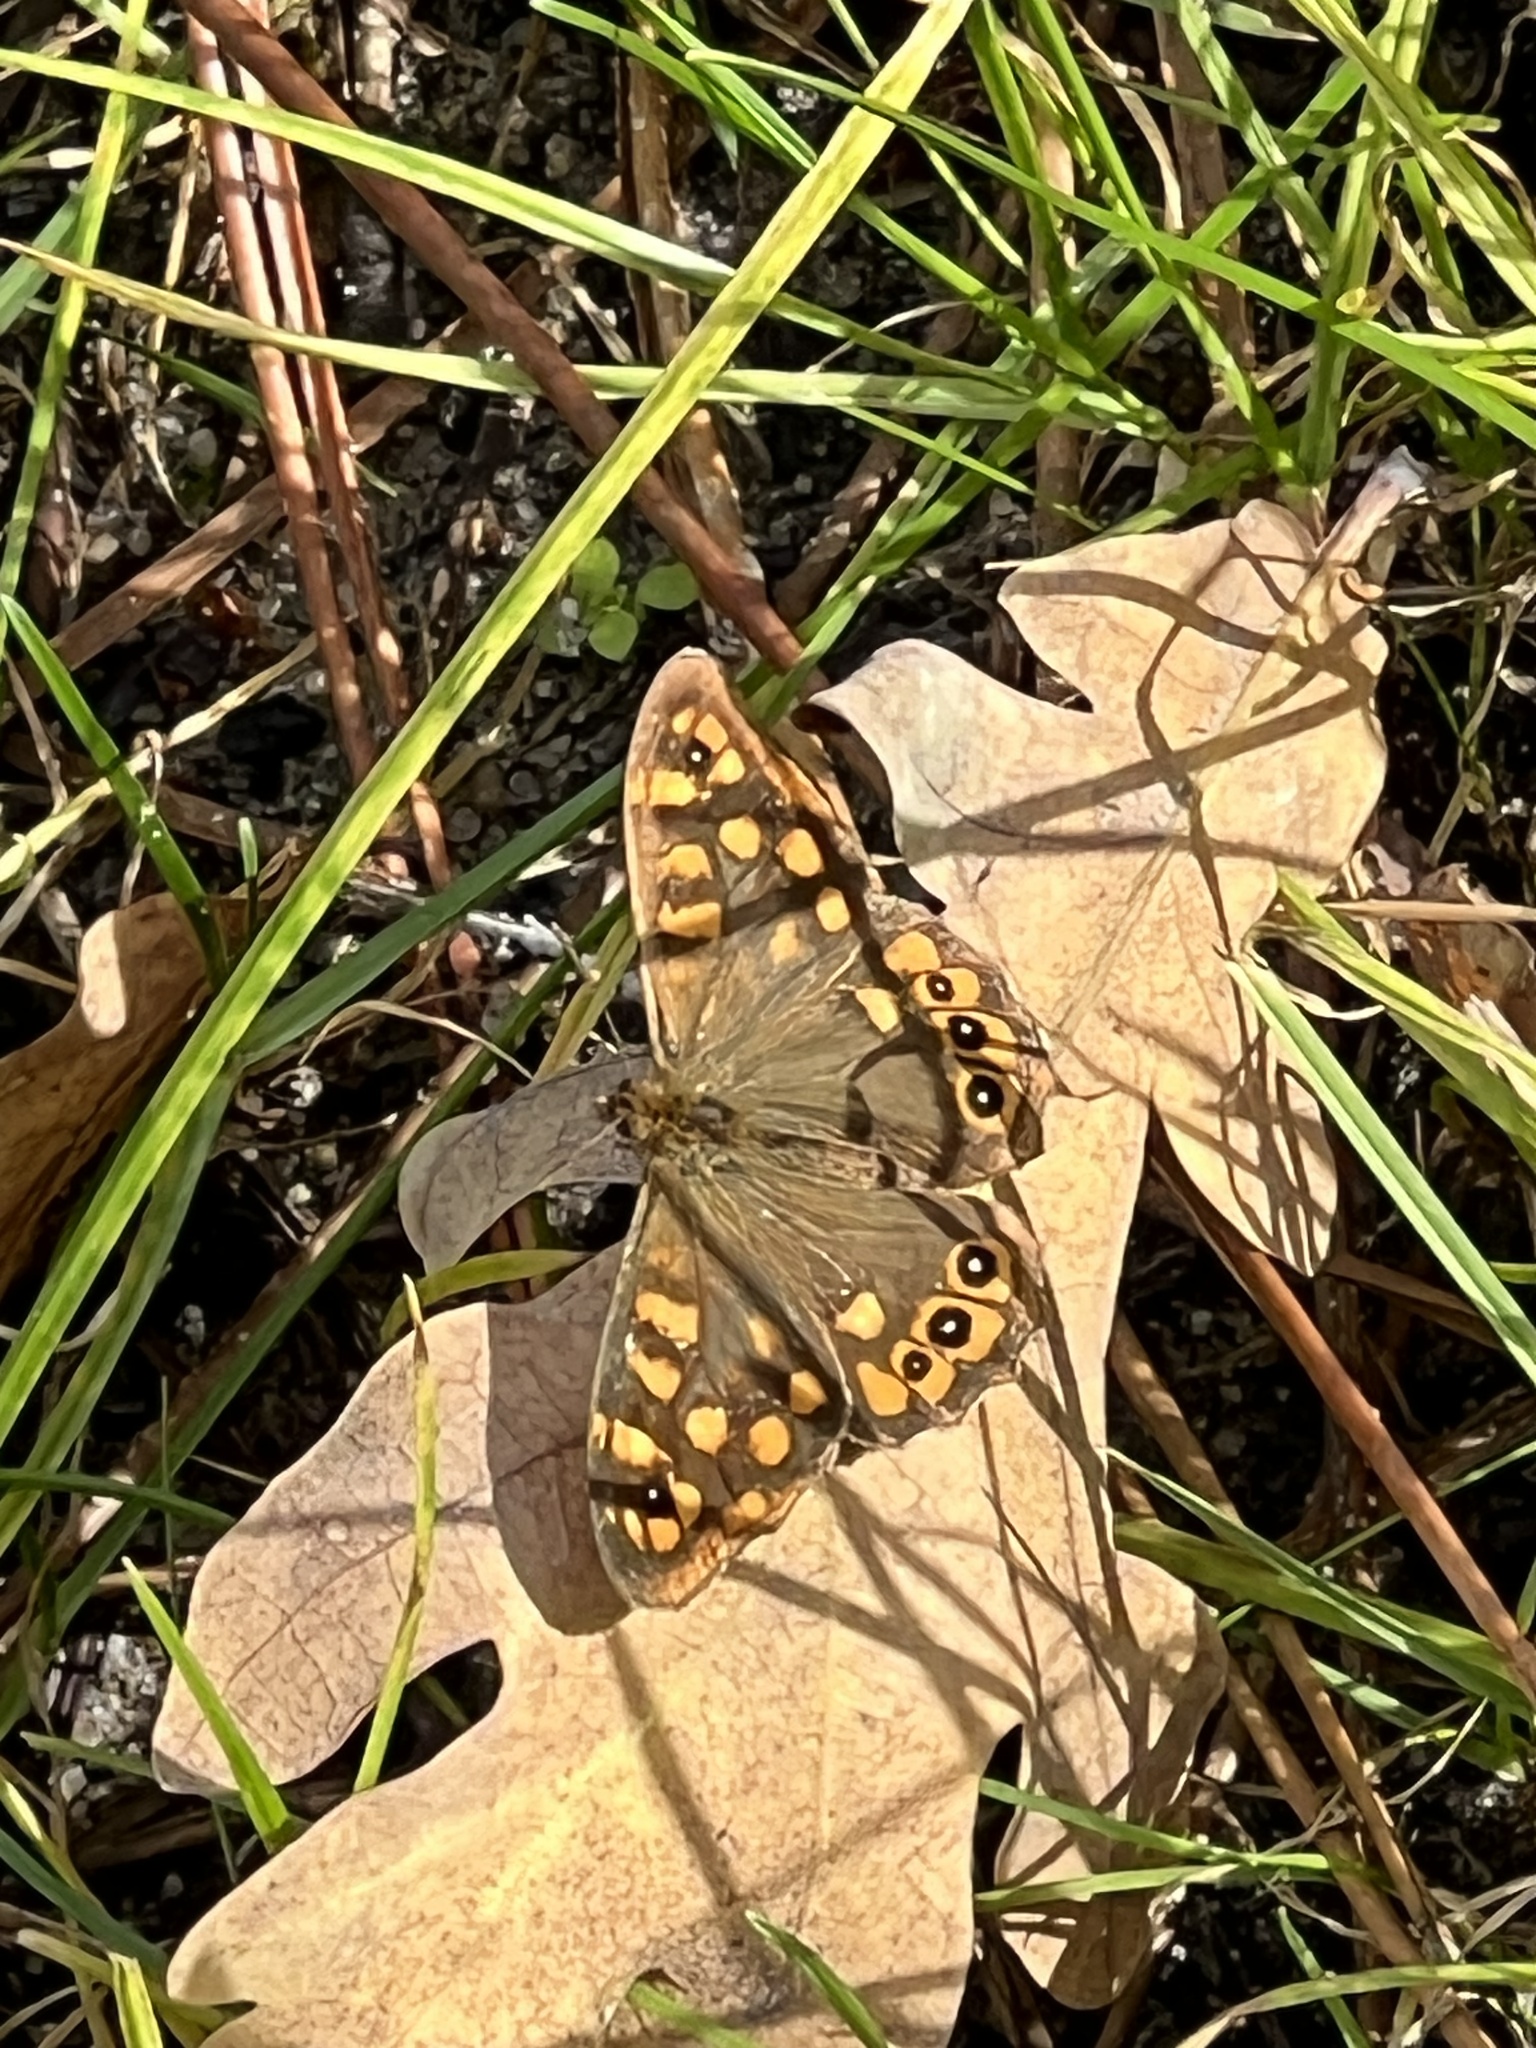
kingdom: Animalia
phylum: Arthropoda
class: Insecta
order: Lepidoptera
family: Nymphalidae
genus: Pararge
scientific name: Pararge aegeria
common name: Speckled wood
